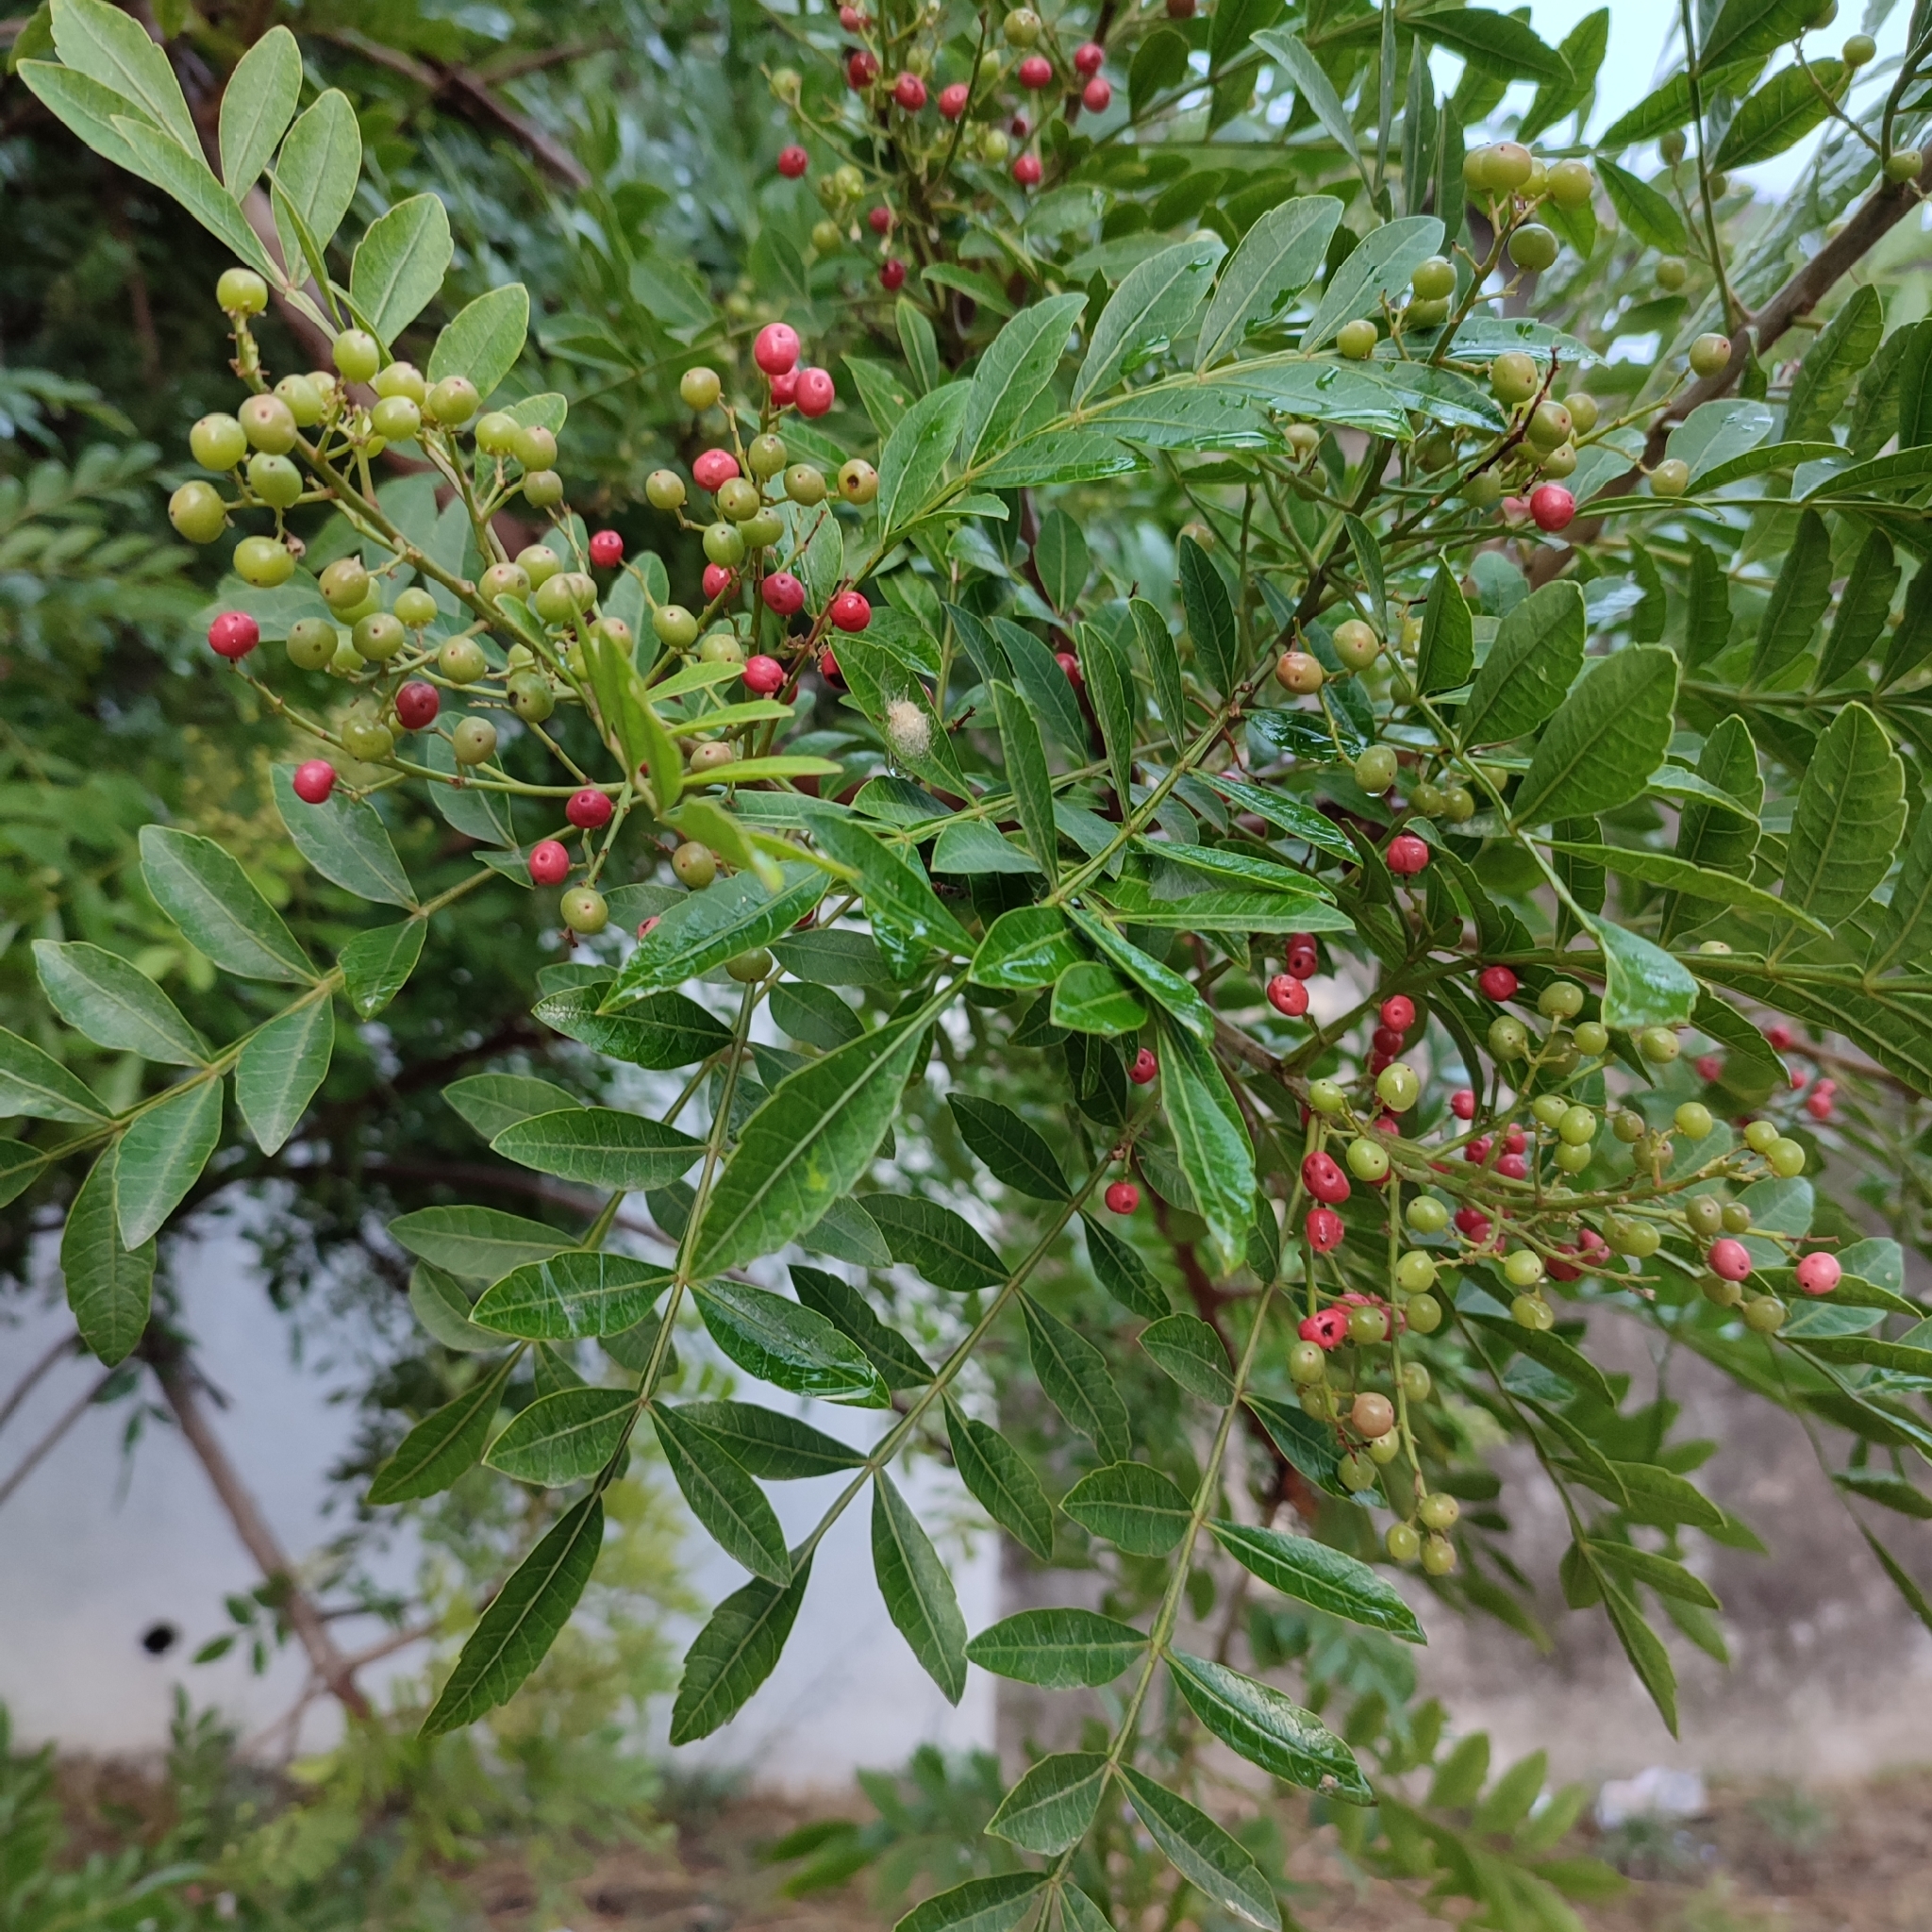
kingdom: Plantae
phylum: Tracheophyta
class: Magnoliopsida
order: Sapindales
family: Anacardiaceae
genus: Pistacia
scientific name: Pistacia lentiscus
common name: Lentisk
